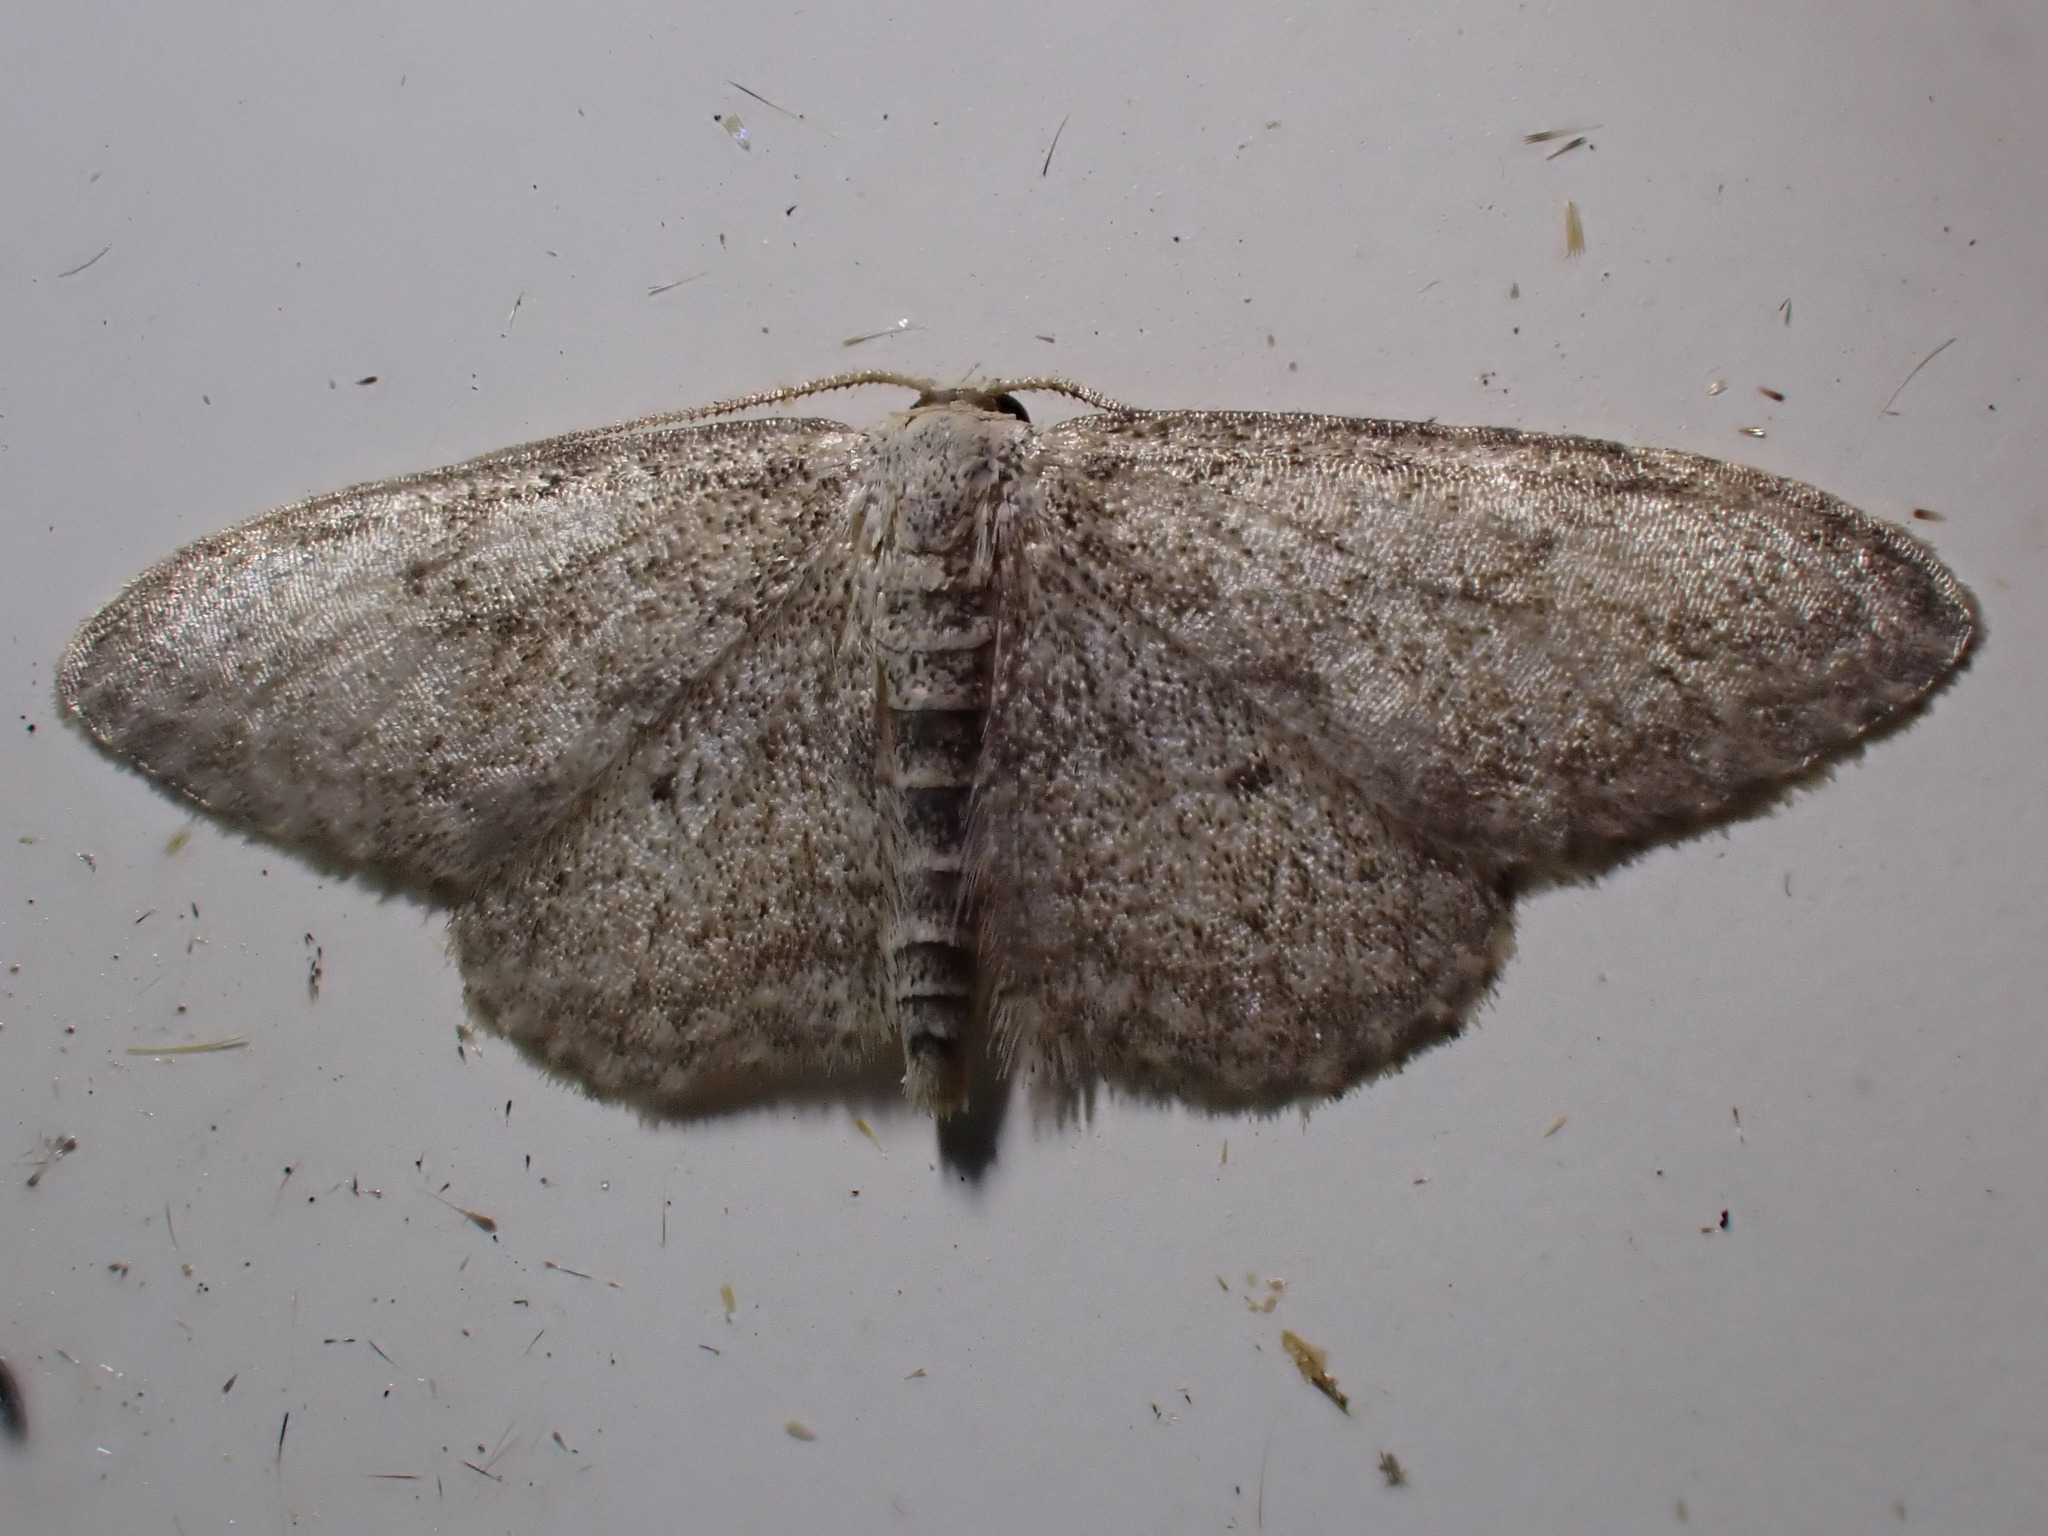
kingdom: Animalia
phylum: Arthropoda
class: Insecta
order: Lepidoptera
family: Geometridae
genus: Idaea
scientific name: Idaea seriata
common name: Small dusty wave
